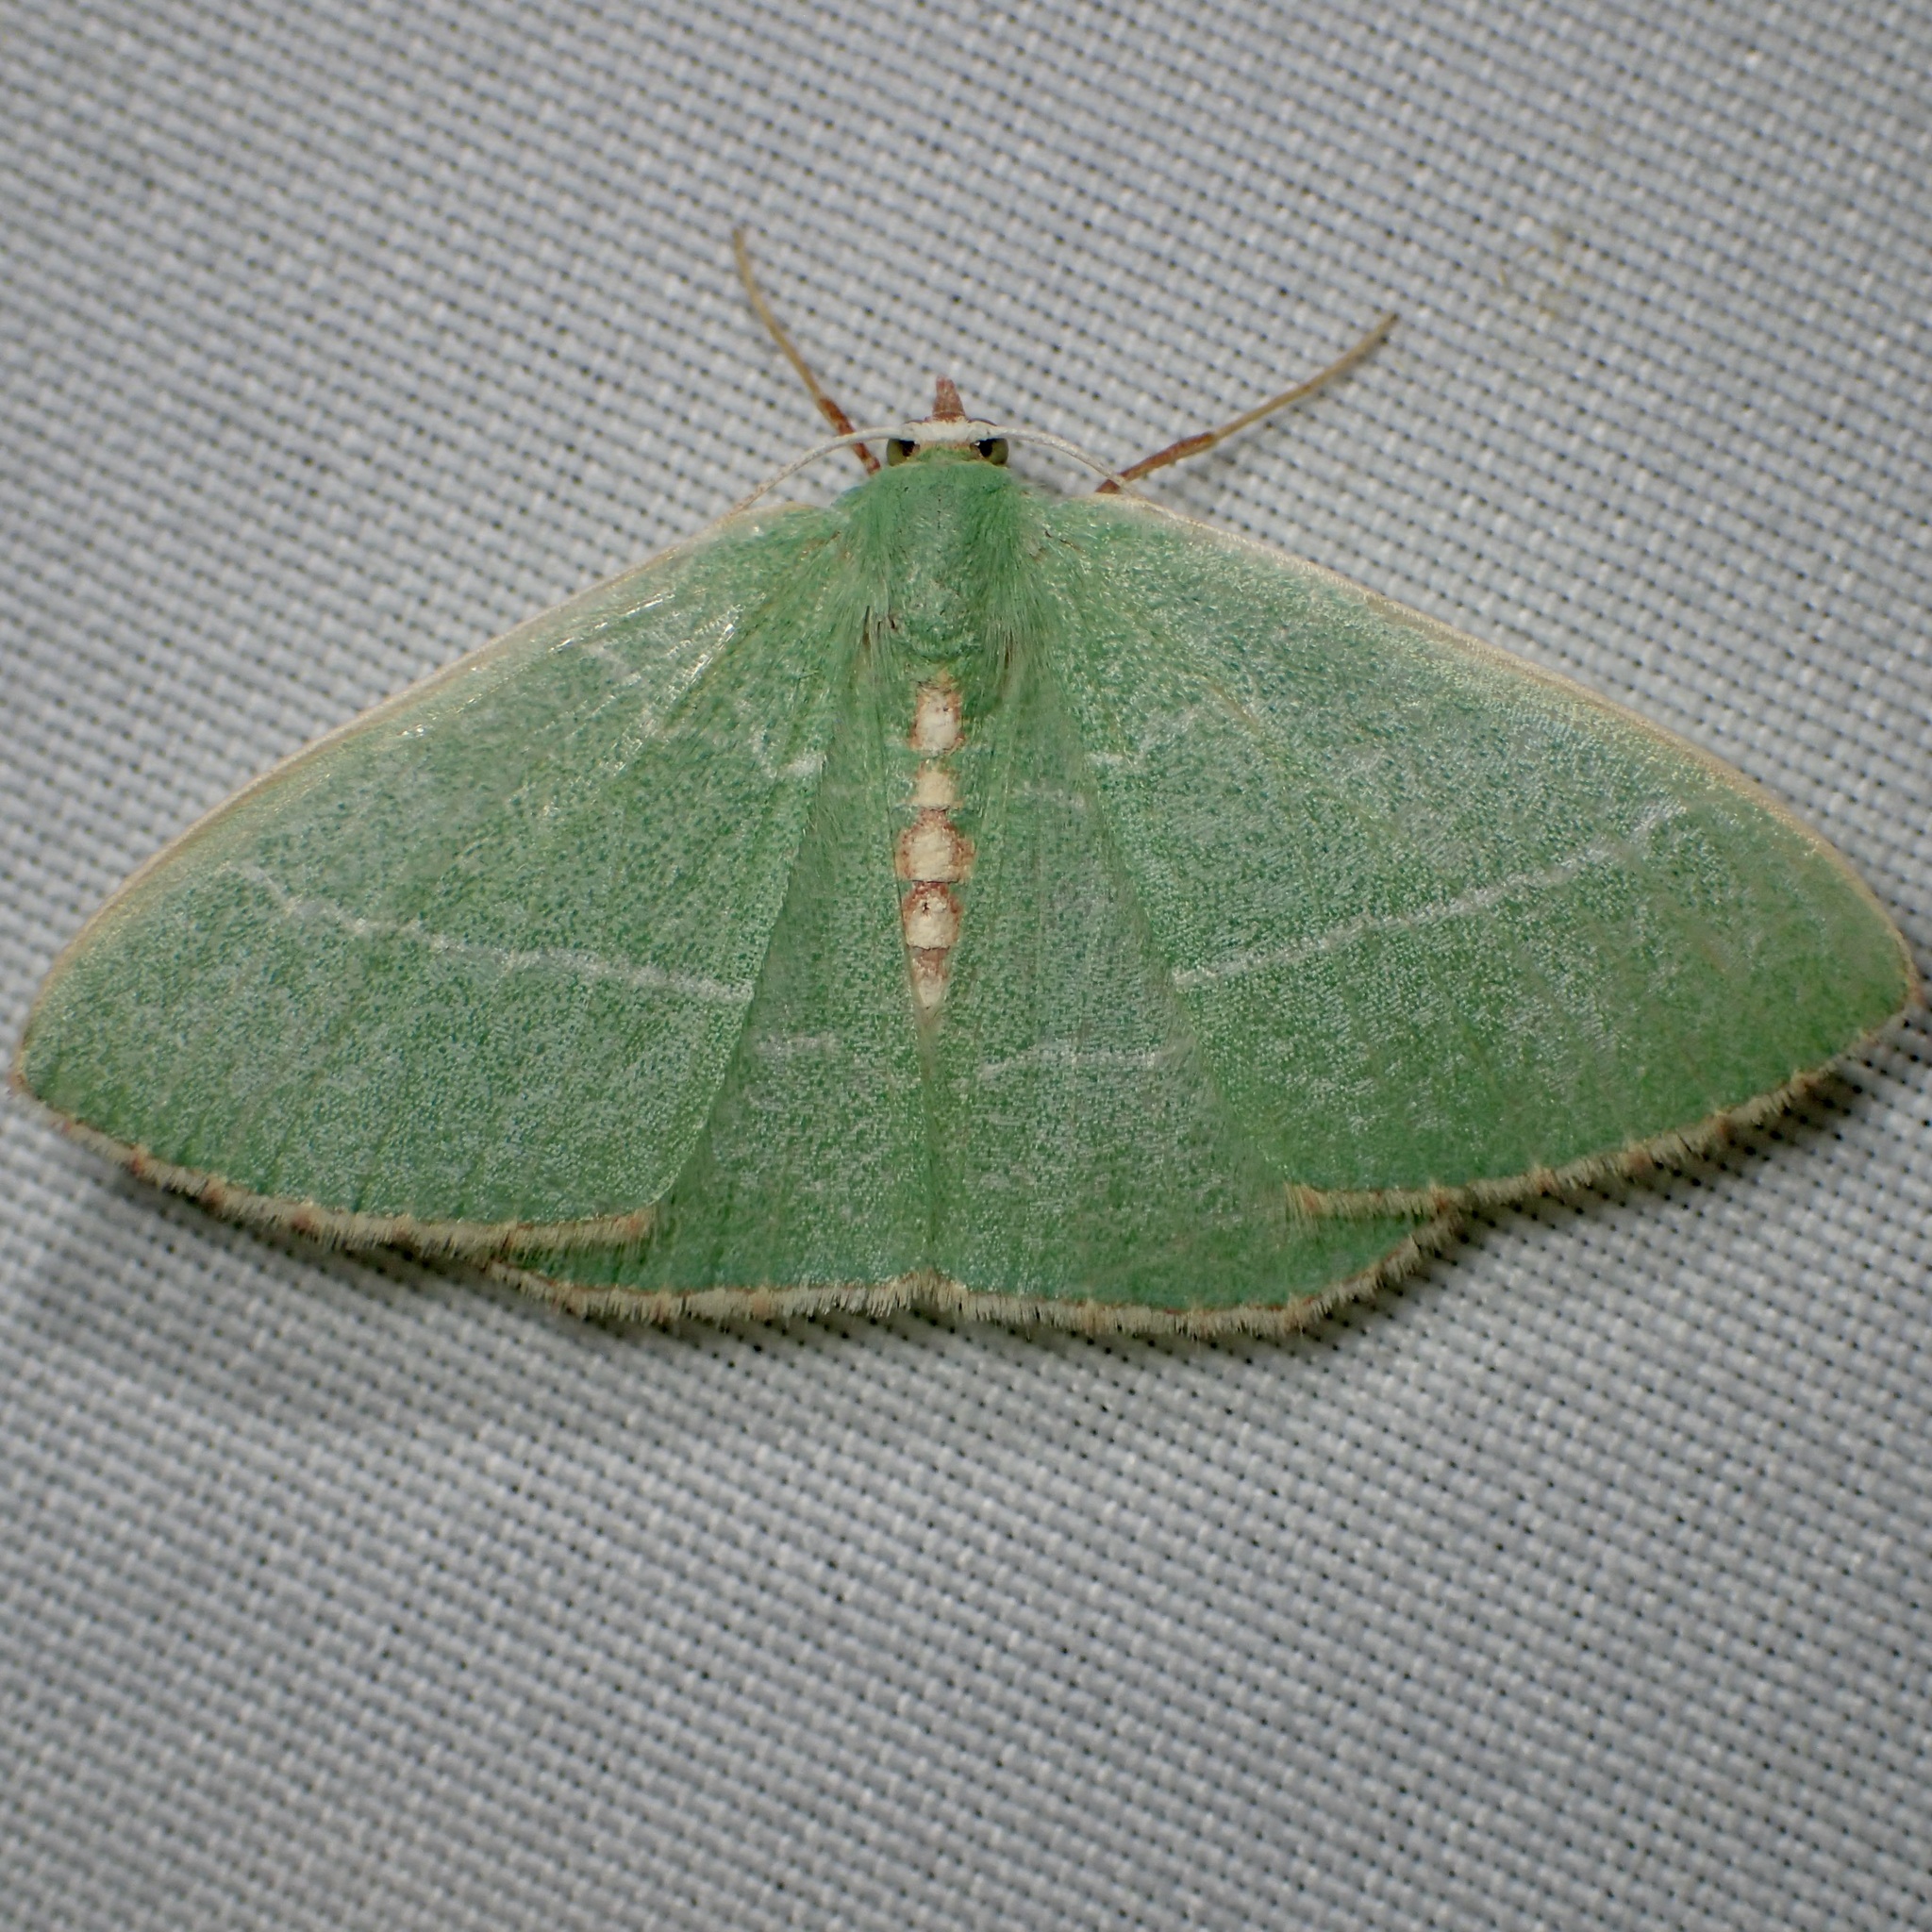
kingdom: Animalia
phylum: Arthropoda
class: Insecta
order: Lepidoptera
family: Geometridae
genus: Nemoria
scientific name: Nemoria festaria
